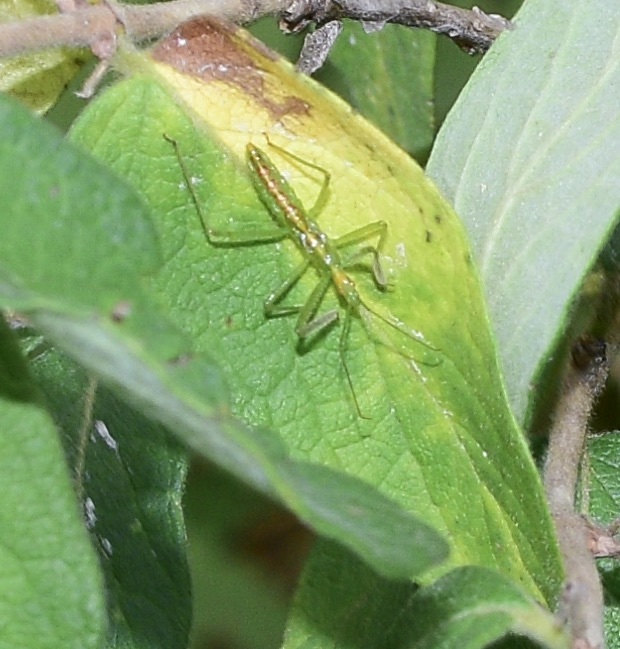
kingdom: Animalia
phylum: Arthropoda
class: Insecta
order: Hemiptera
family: Reduviidae
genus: Zelus
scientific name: Zelus luridus
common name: Pale green assassin bug
